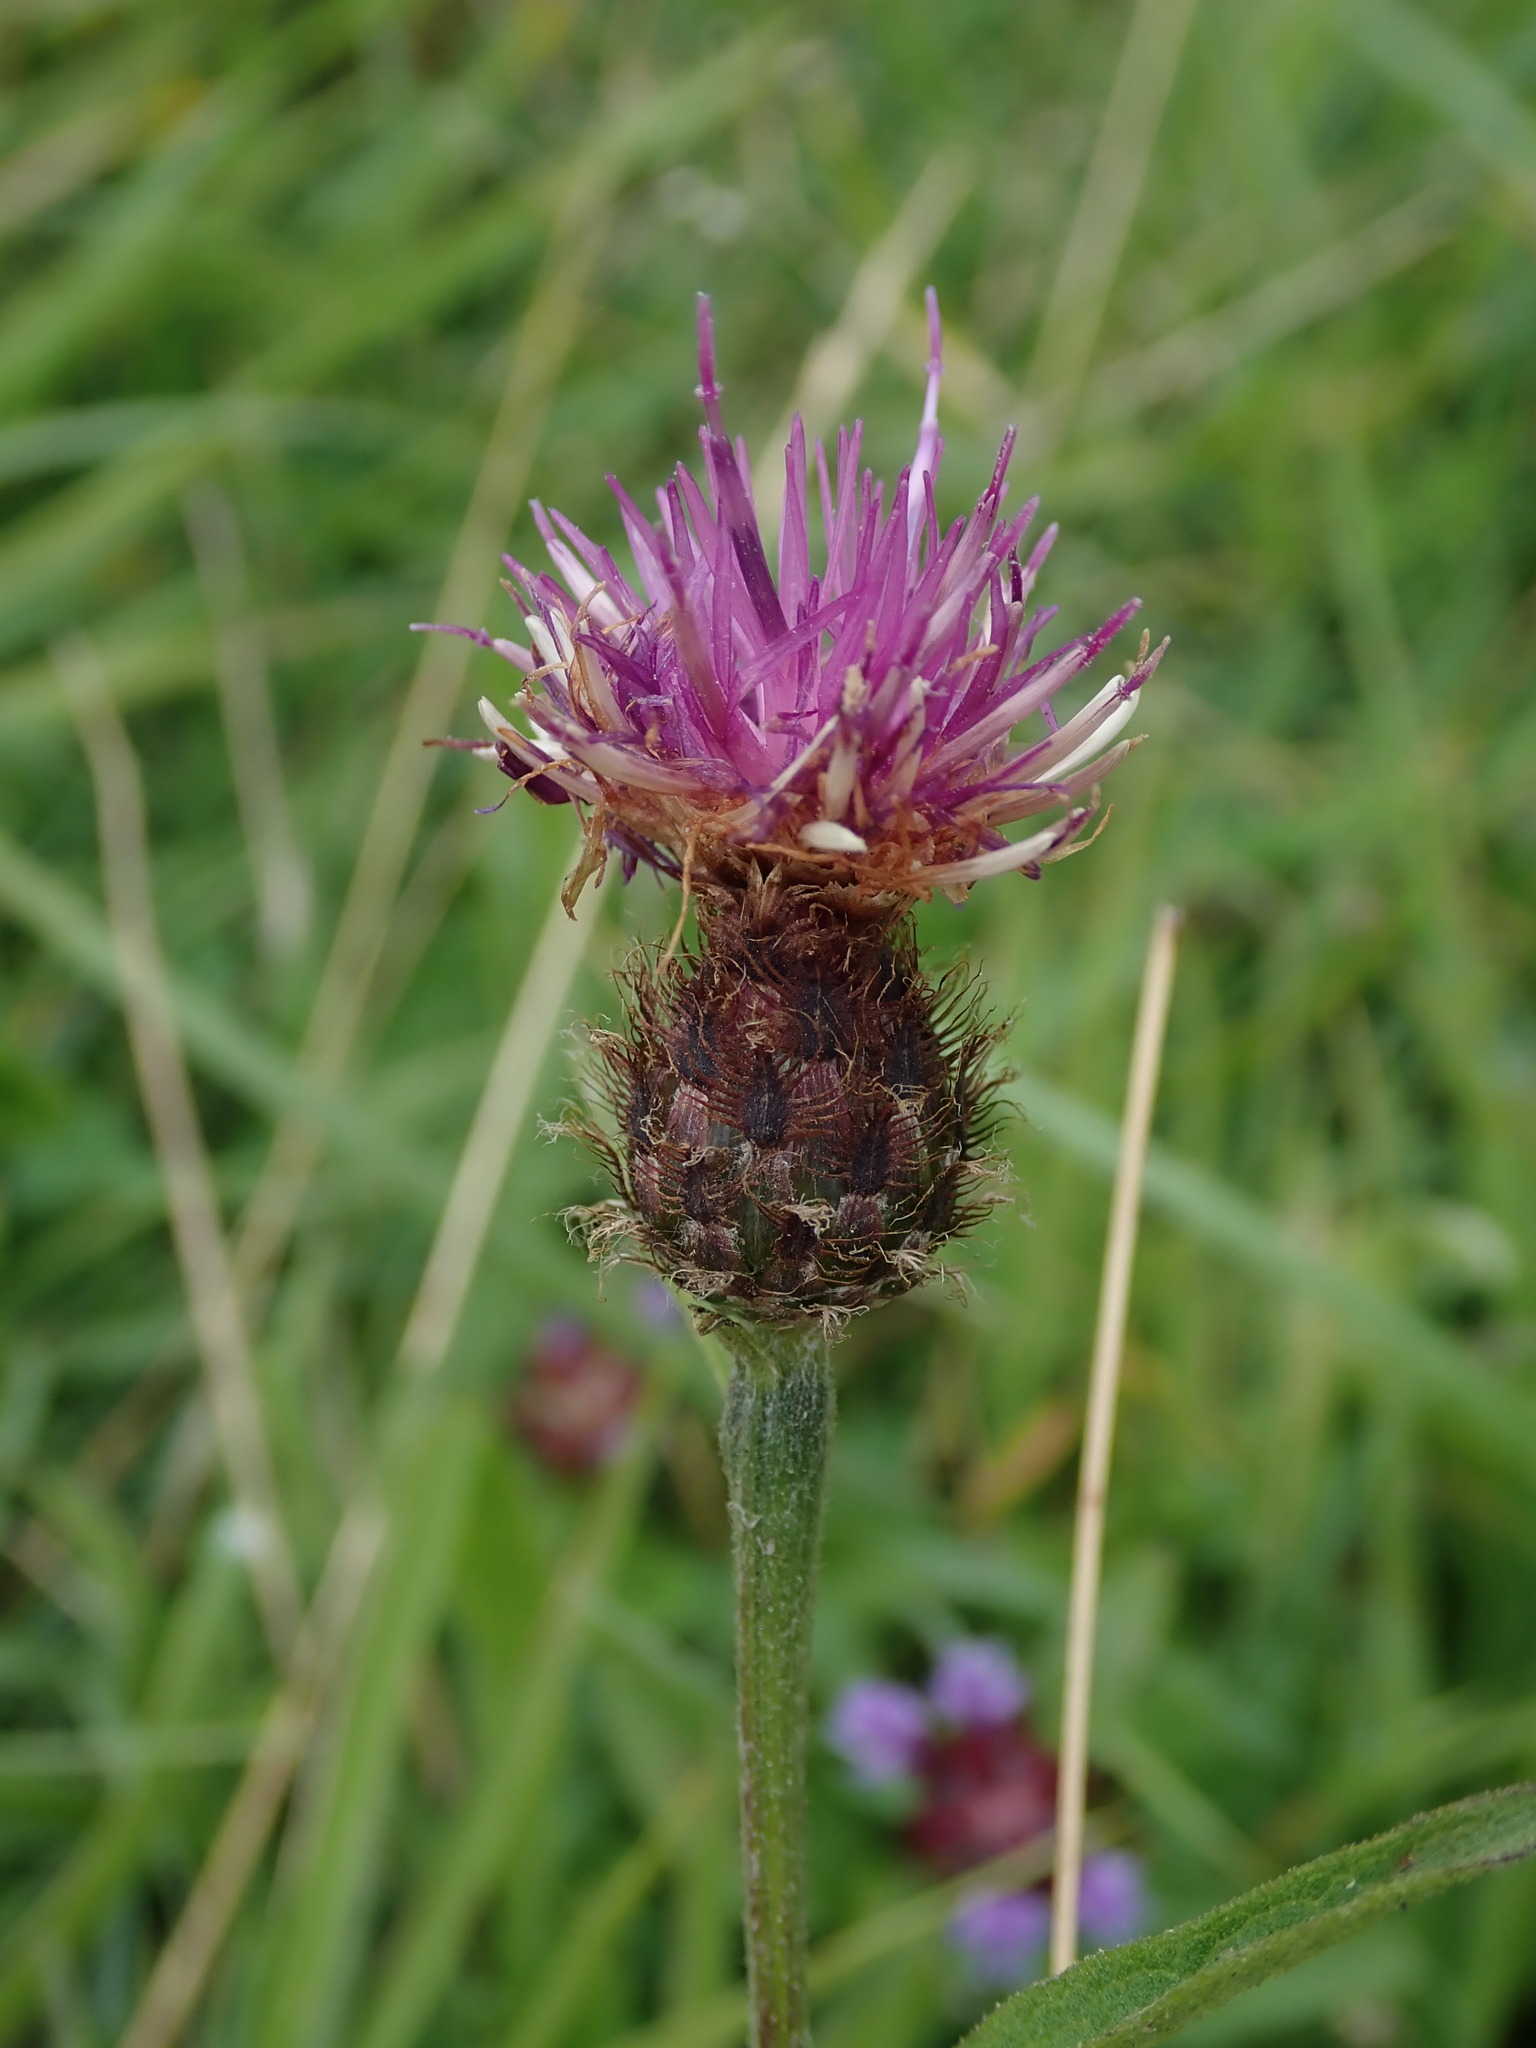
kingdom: Plantae
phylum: Tracheophyta
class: Magnoliopsida
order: Asterales
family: Asteraceae
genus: Centaurea
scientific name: Centaurea debeauxii
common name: Slender knapweed
